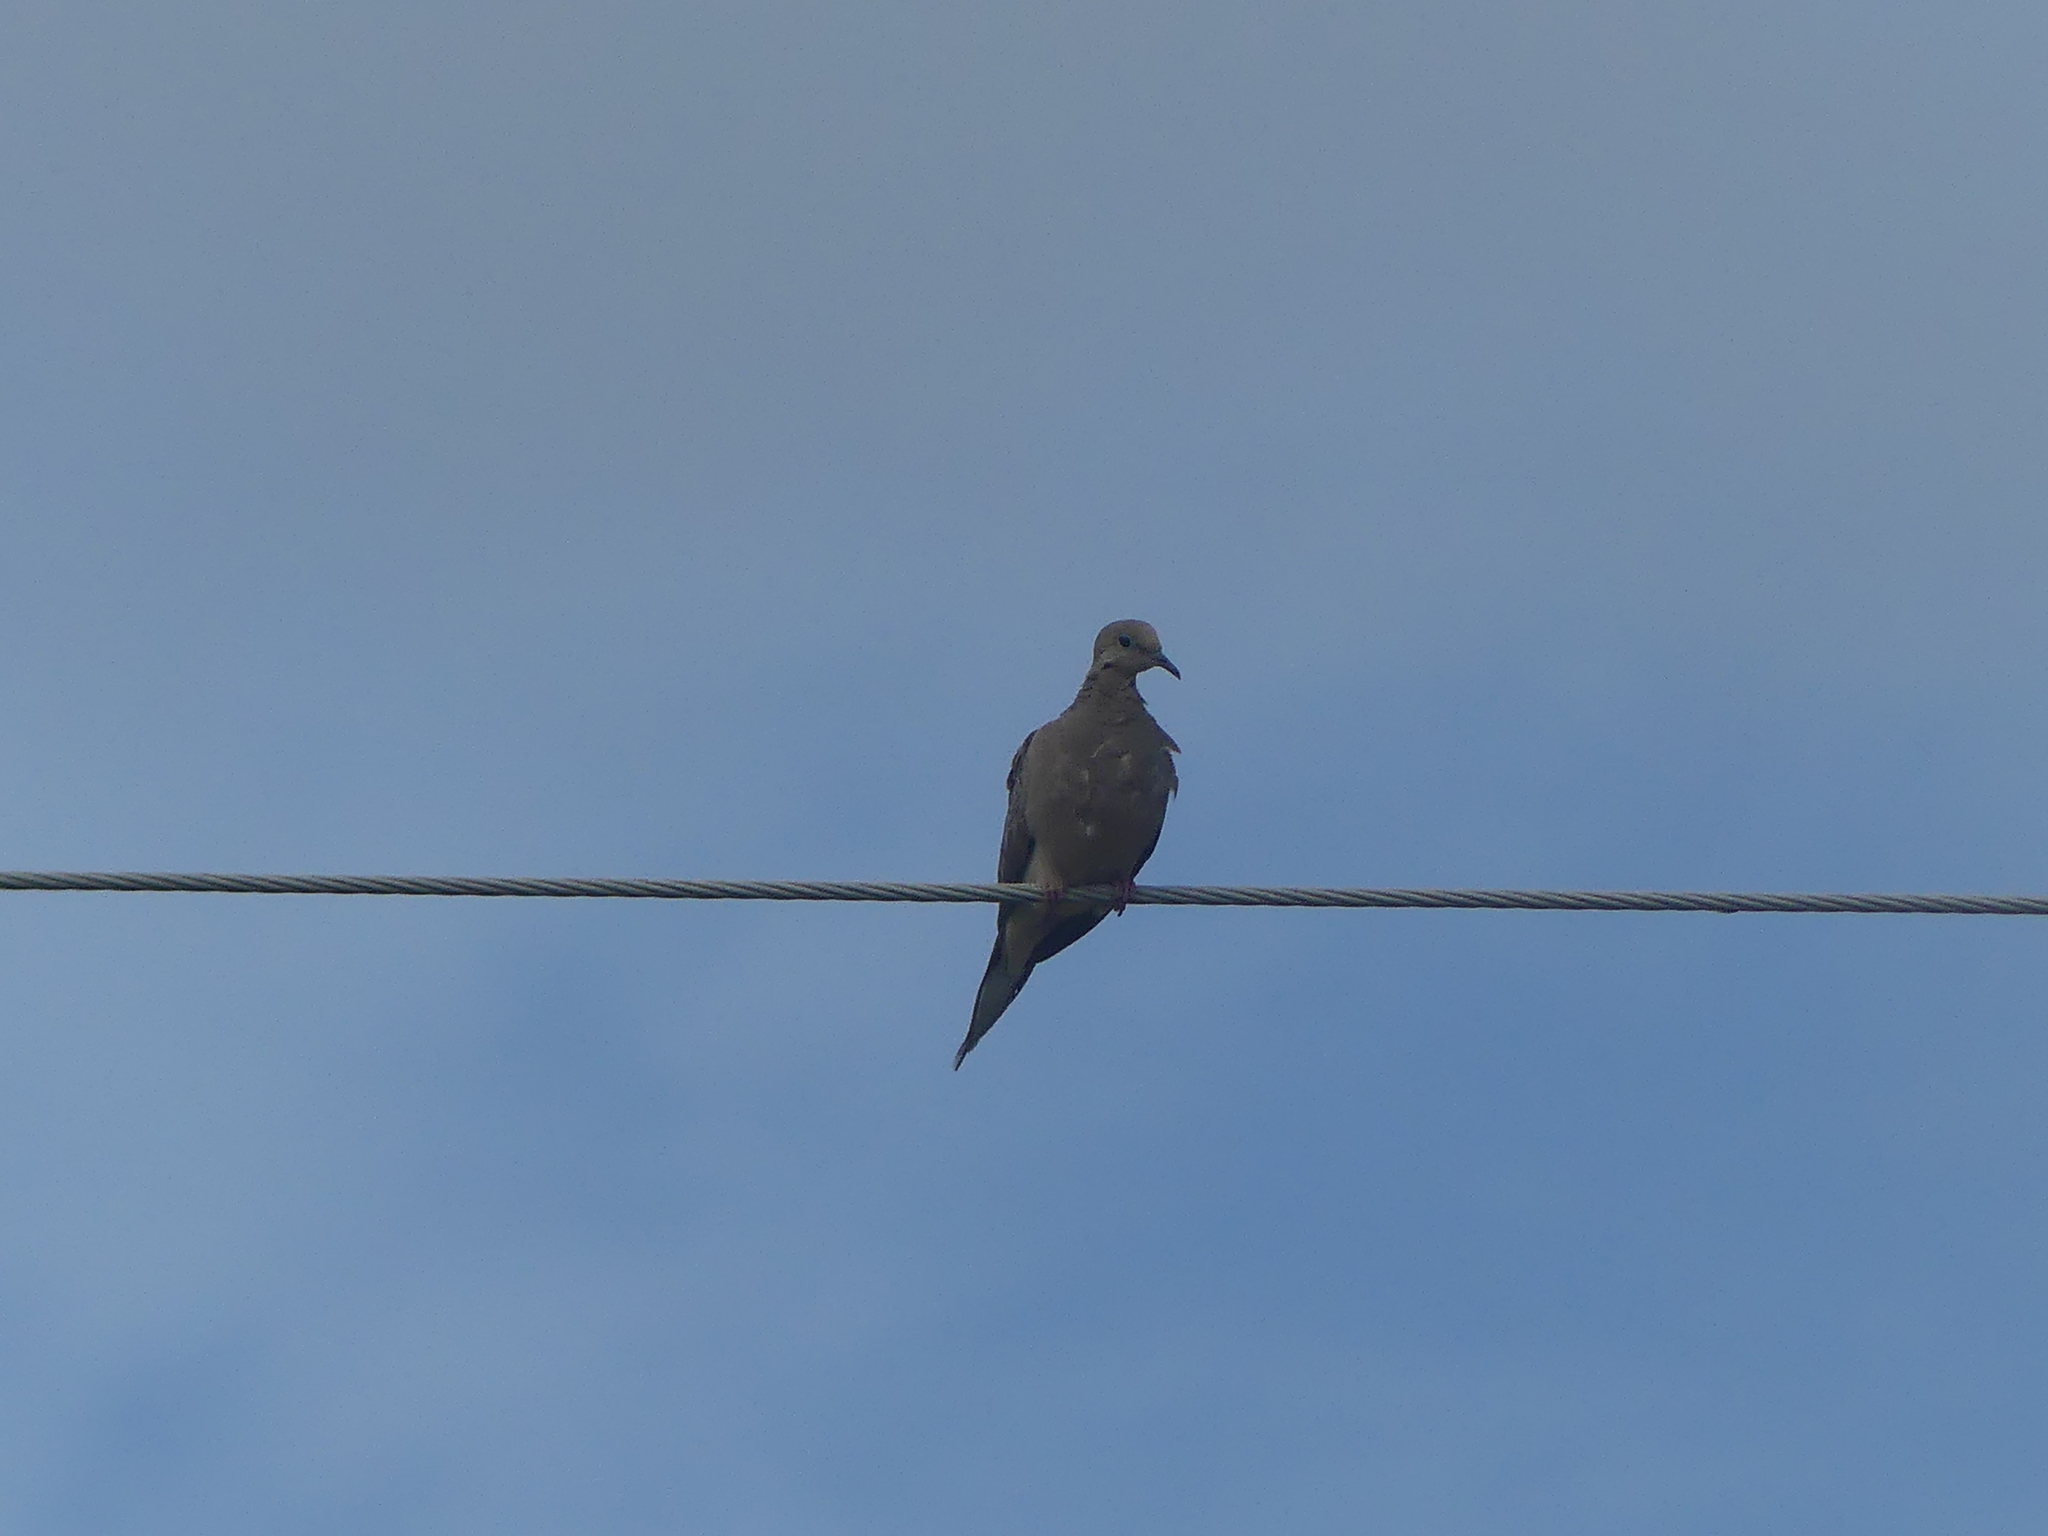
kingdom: Animalia
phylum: Chordata
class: Aves
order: Columbiformes
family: Columbidae
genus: Zenaida
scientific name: Zenaida macroura
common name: Mourning dove
